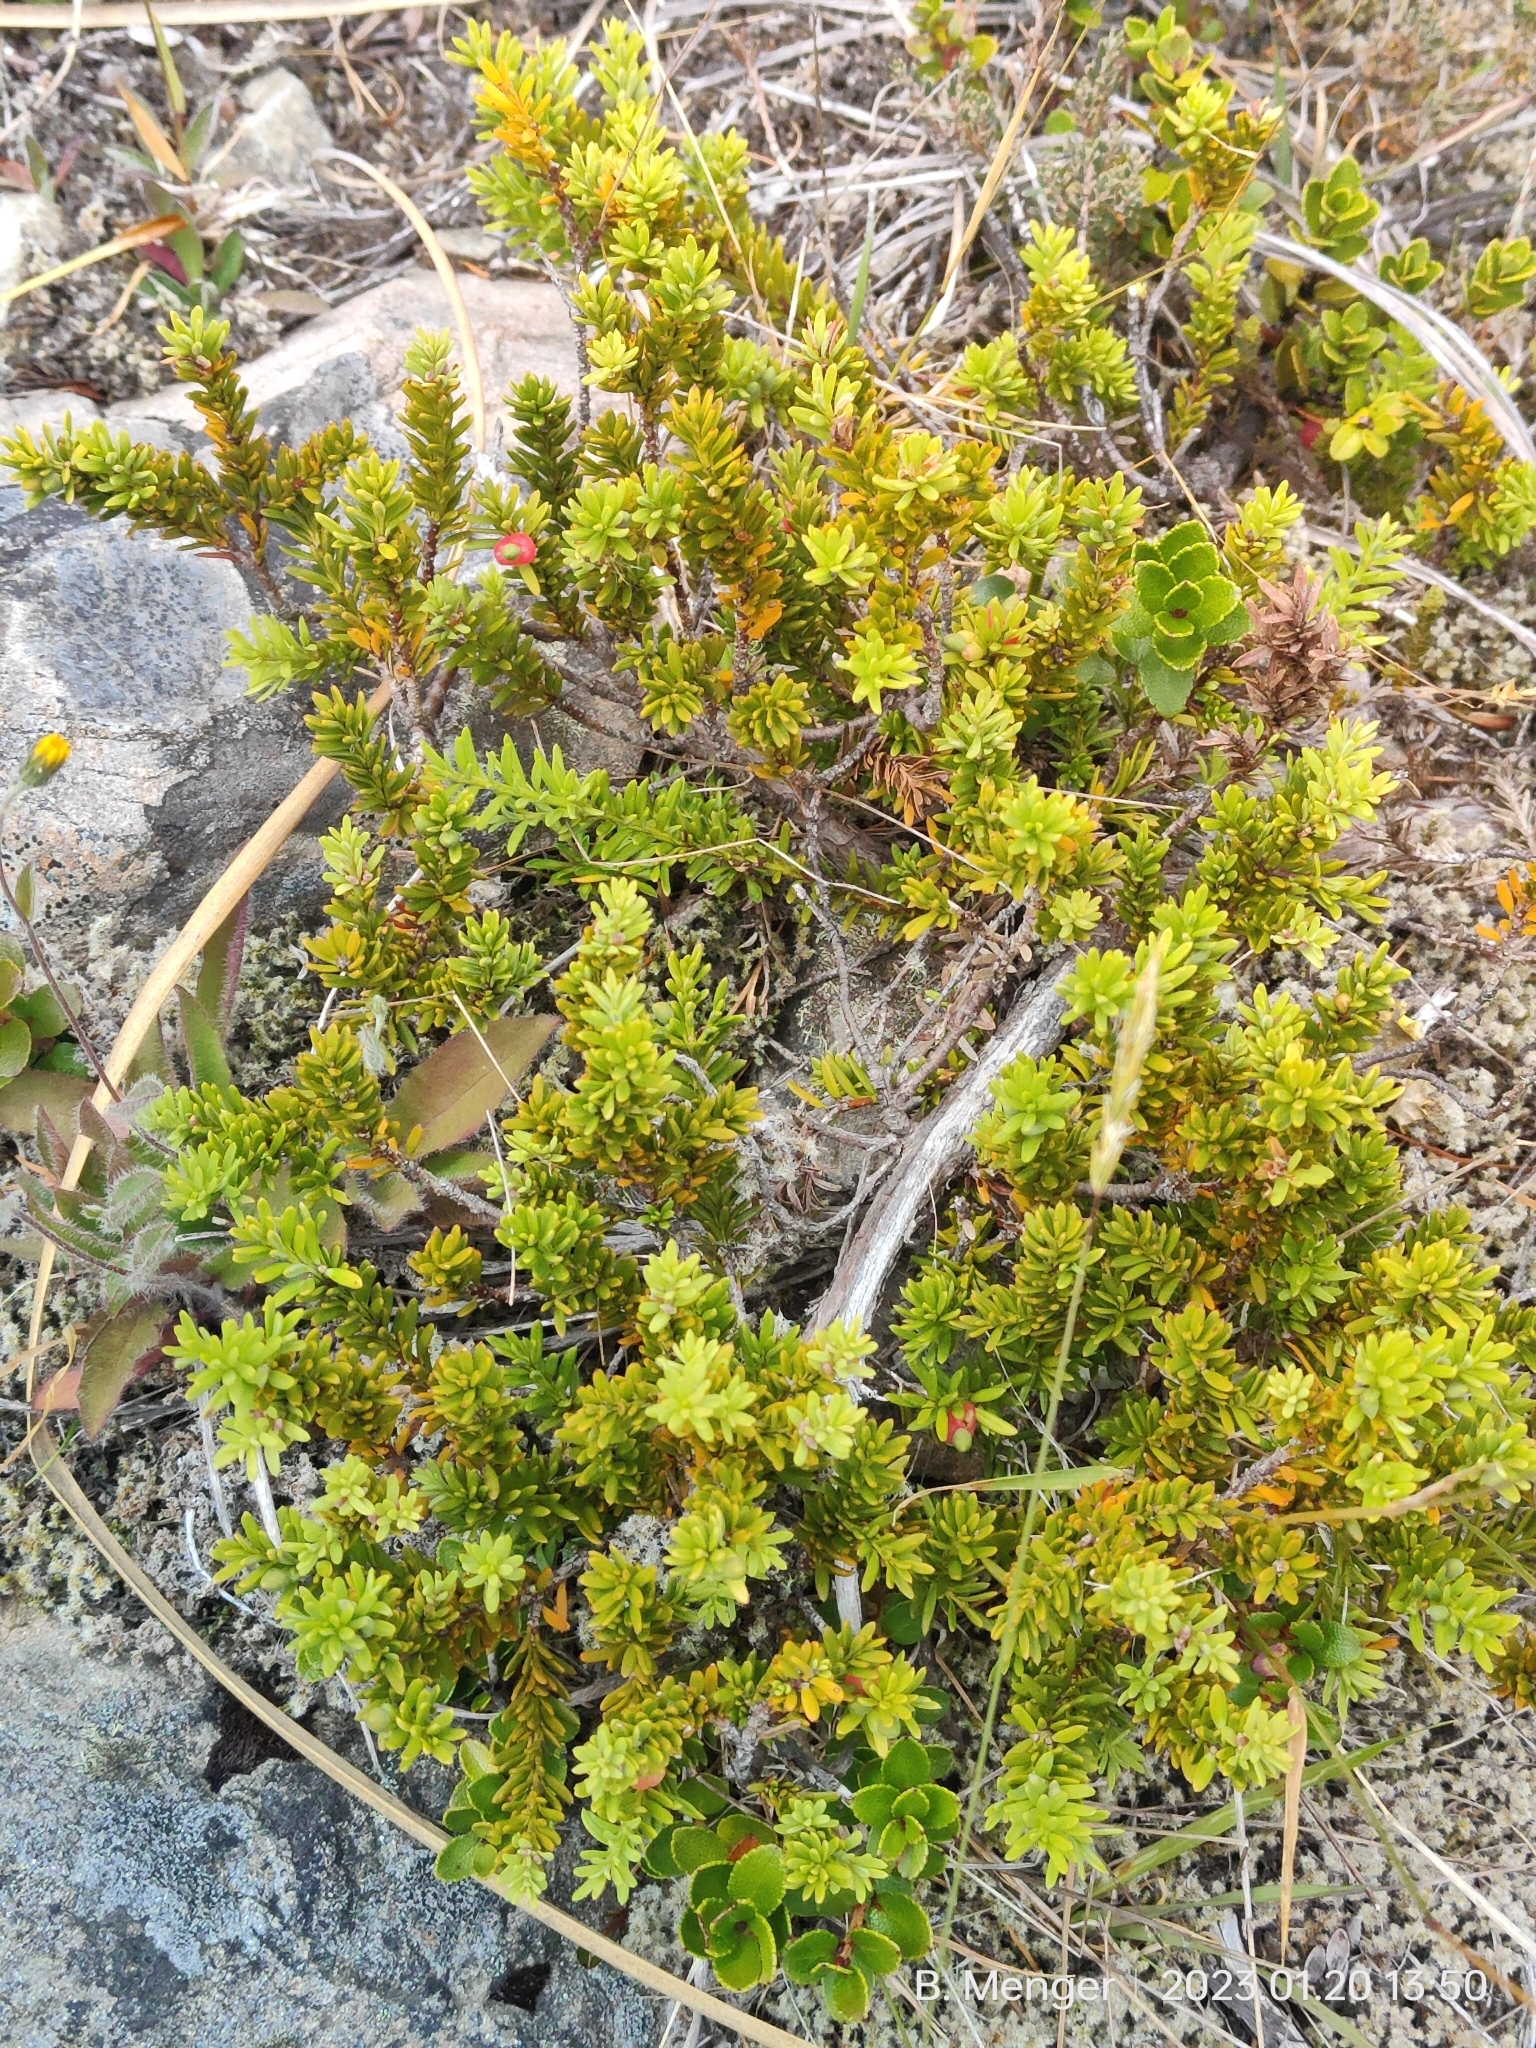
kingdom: Plantae
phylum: Tracheophyta
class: Pinopsida
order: Pinales
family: Podocarpaceae
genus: Podocarpus
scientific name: Podocarpus nivalis
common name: Alpine totara
